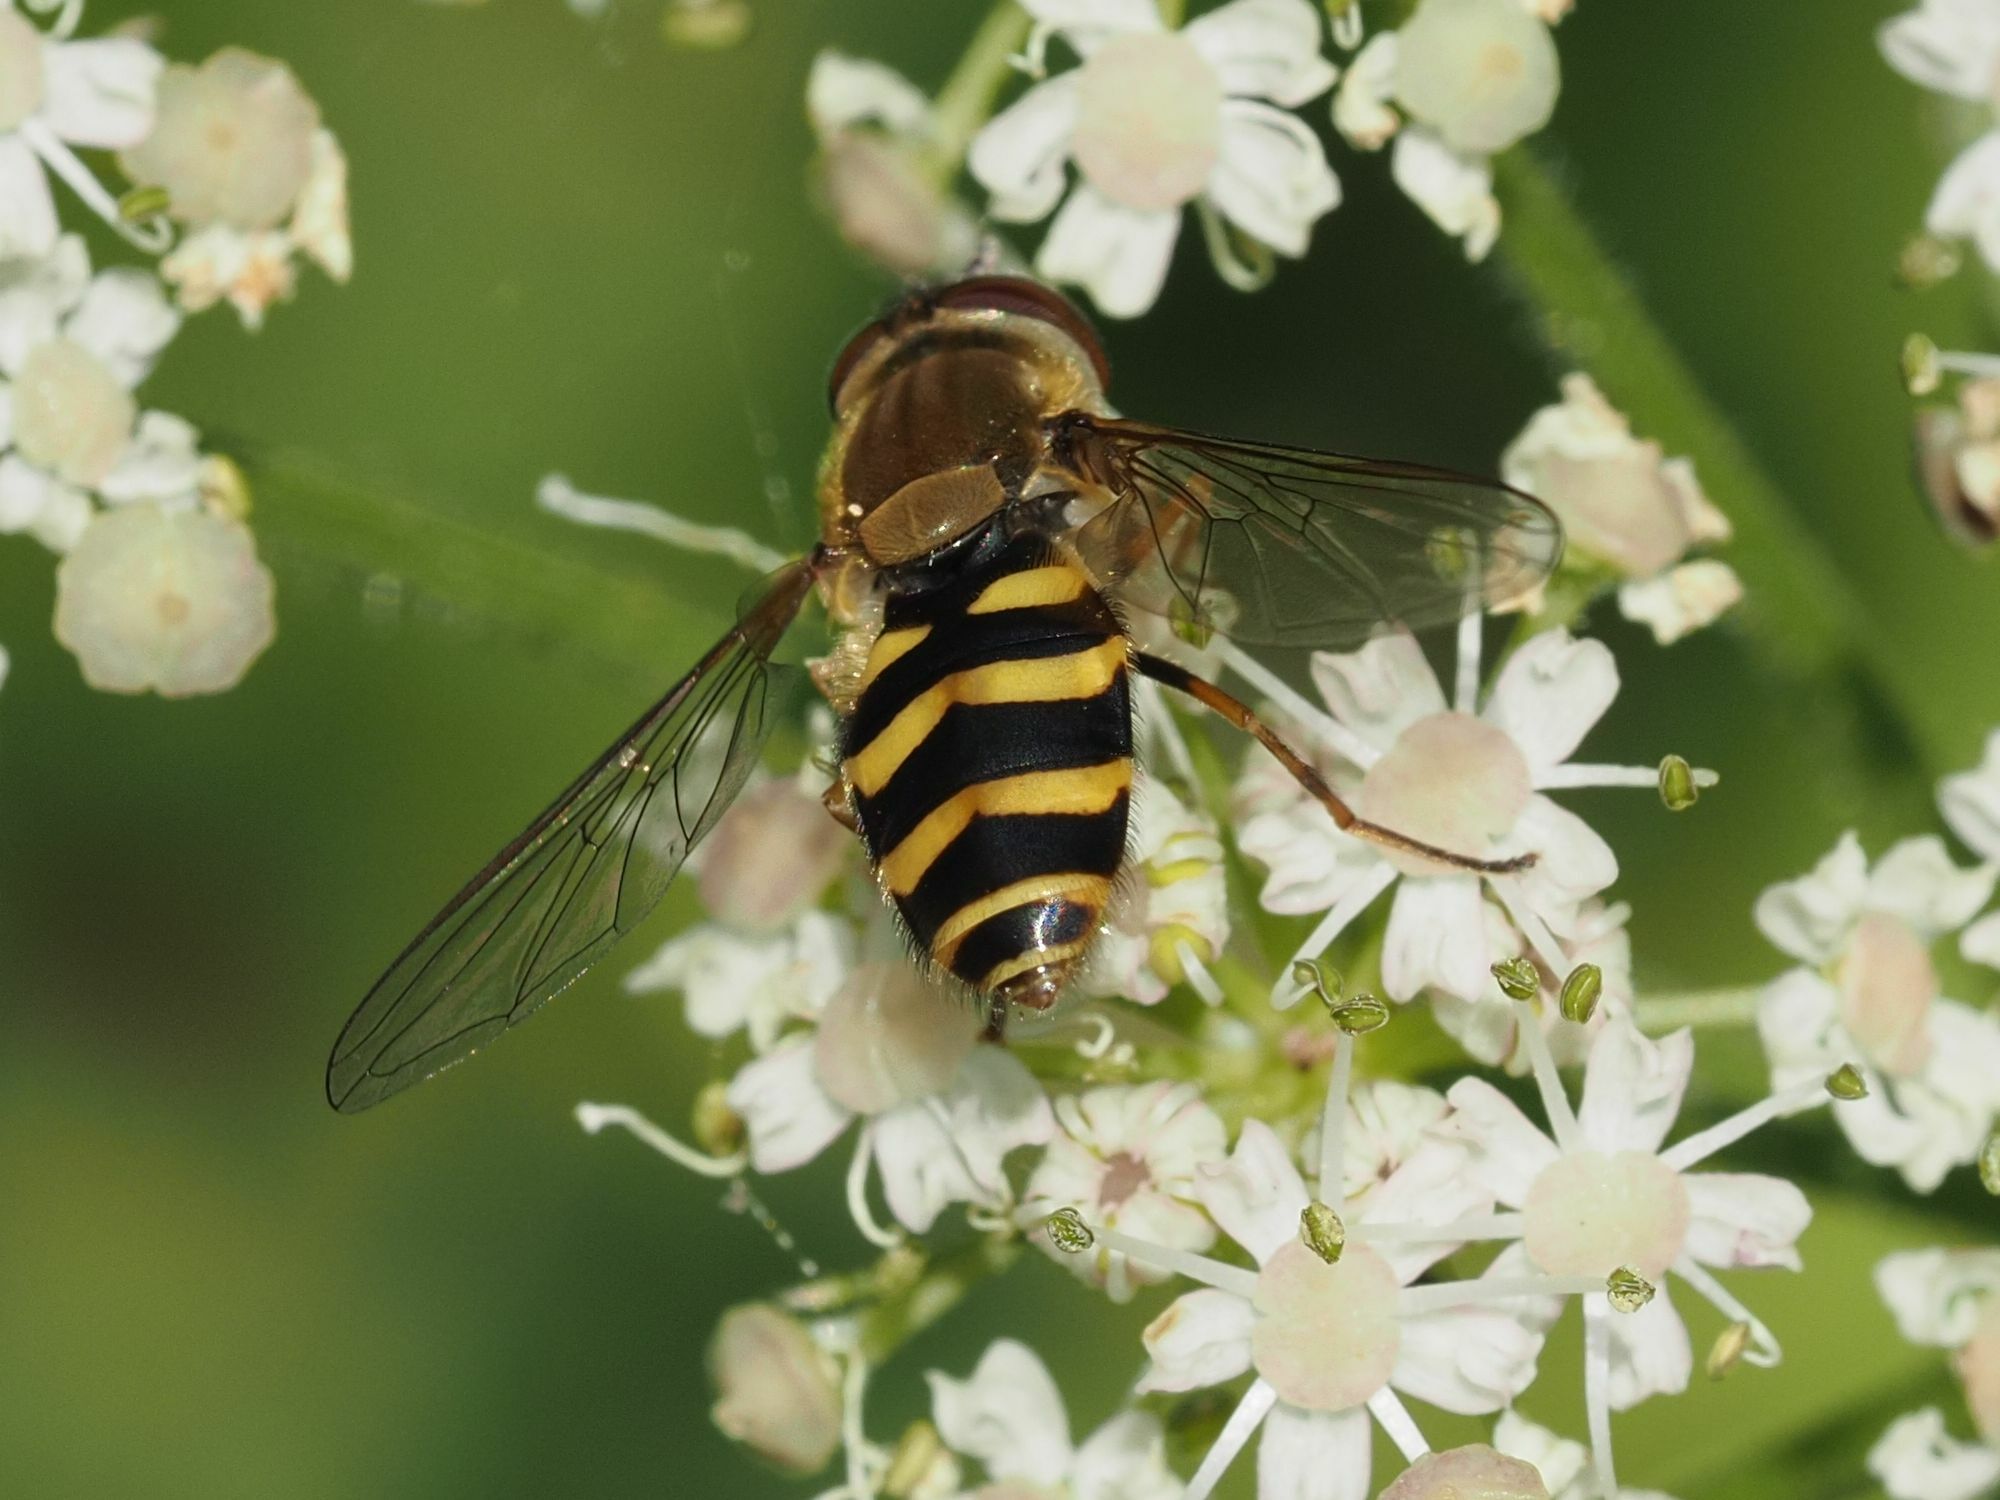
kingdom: Animalia
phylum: Arthropoda
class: Insecta
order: Diptera
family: Syrphidae
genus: Syrphus
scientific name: Syrphus torvus
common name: Hairy-eyed flower fly
